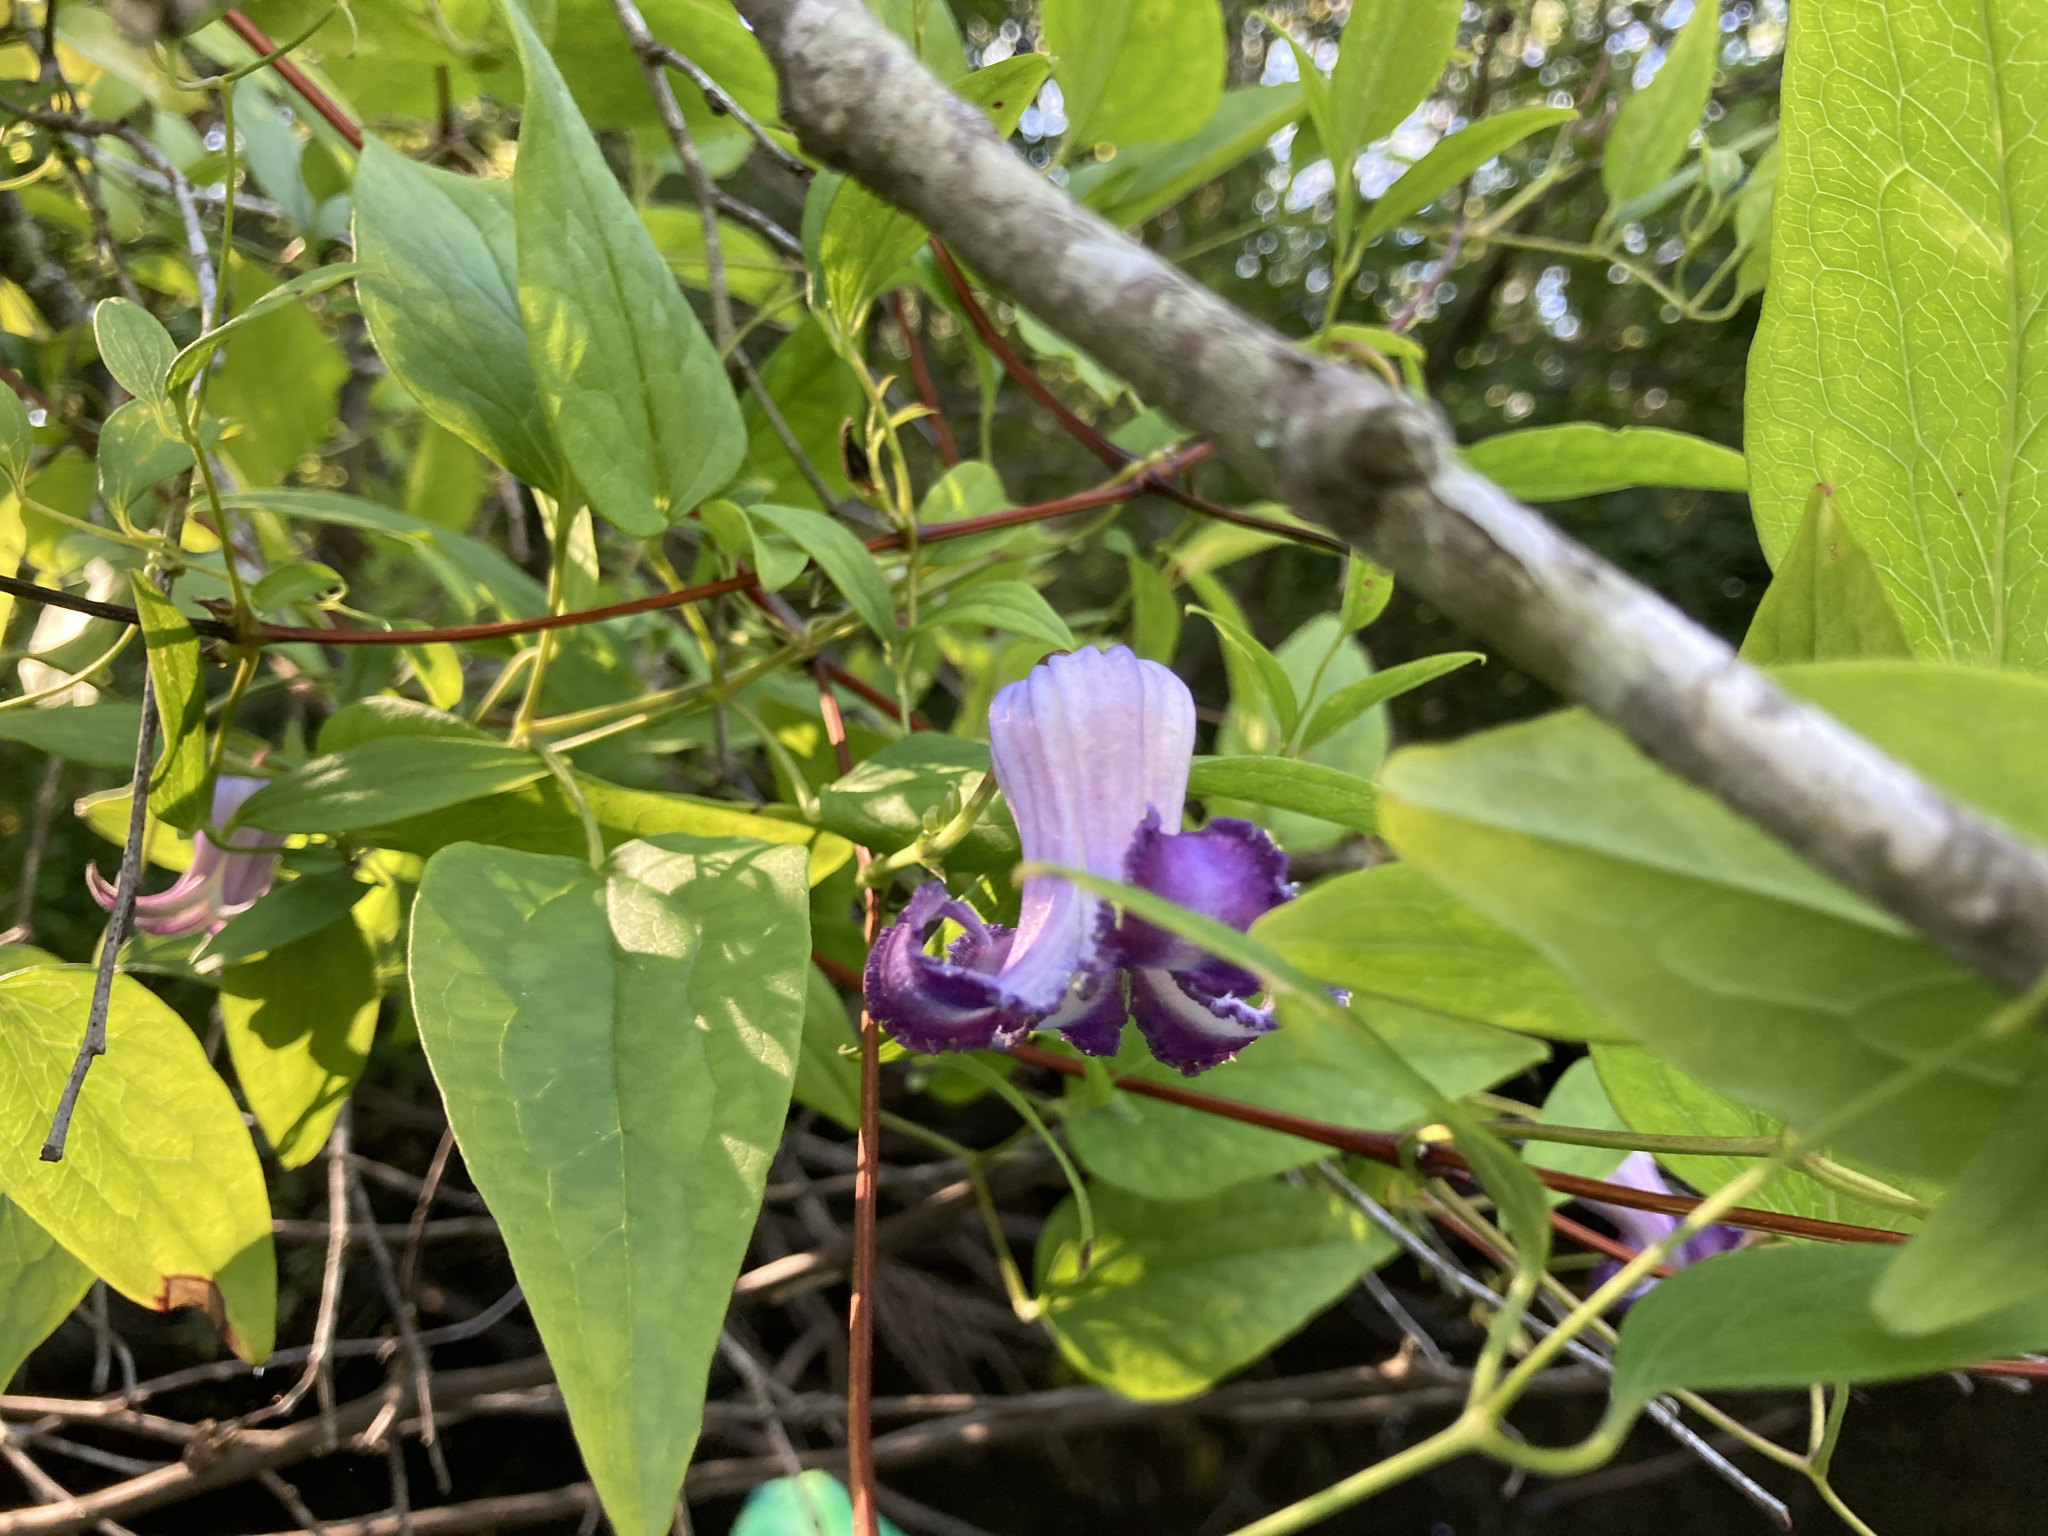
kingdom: Plantae
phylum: Tracheophyta
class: Magnoliopsida
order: Ranunculales
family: Ranunculaceae
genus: Clematis
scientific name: Clematis crispa
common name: Curly clematis
